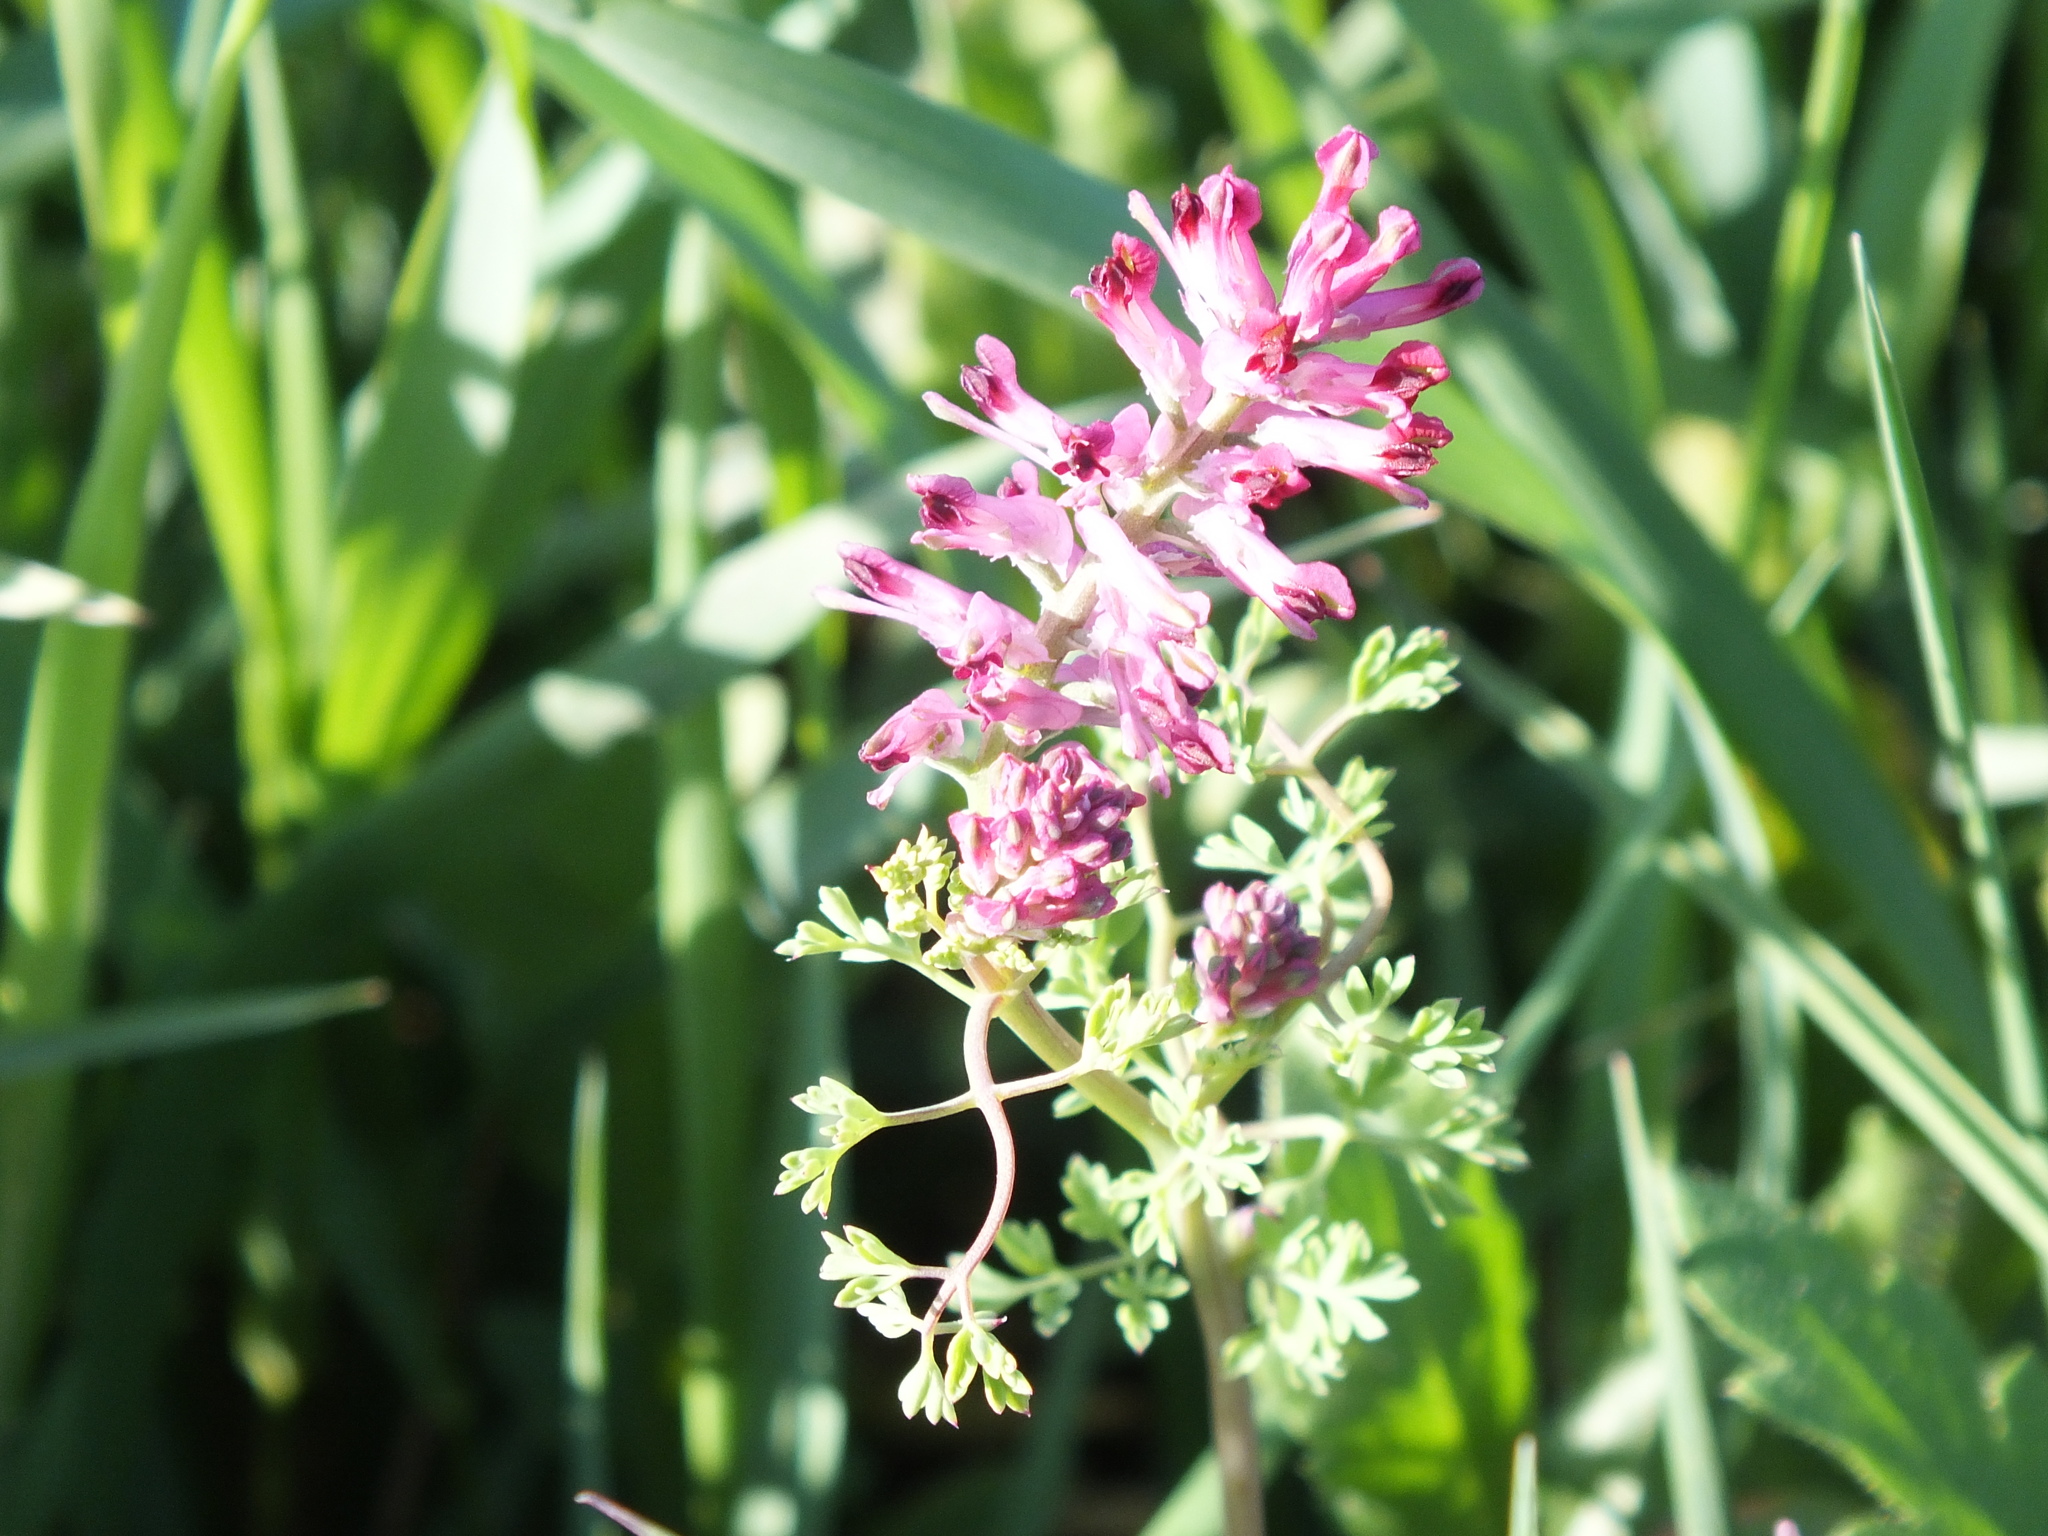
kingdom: Plantae
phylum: Tracheophyta
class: Magnoliopsida
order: Ranunculales
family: Papaveraceae
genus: Fumaria
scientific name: Fumaria officinalis
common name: Common fumitory
